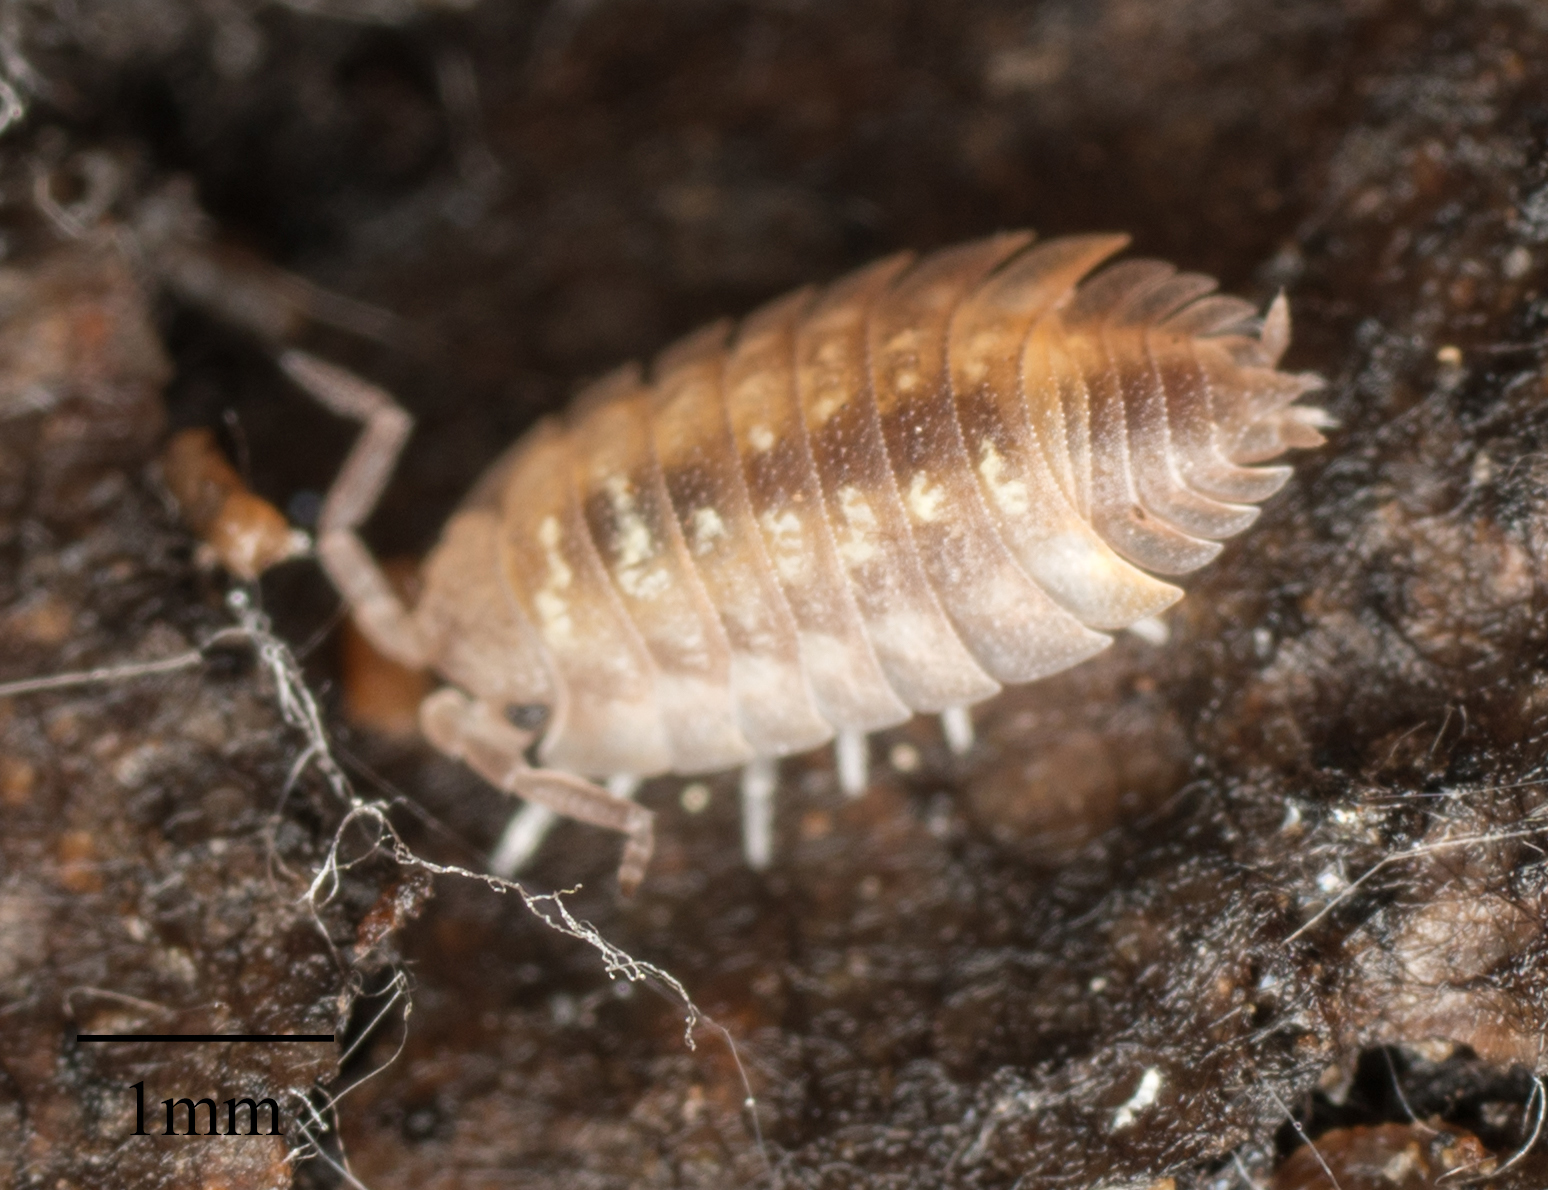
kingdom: Animalia
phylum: Arthropoda
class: Malacostraca
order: Isopoda
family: Oniscidae
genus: Oniscus
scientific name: Oniscus asellus
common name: Common shiny woodlouse
